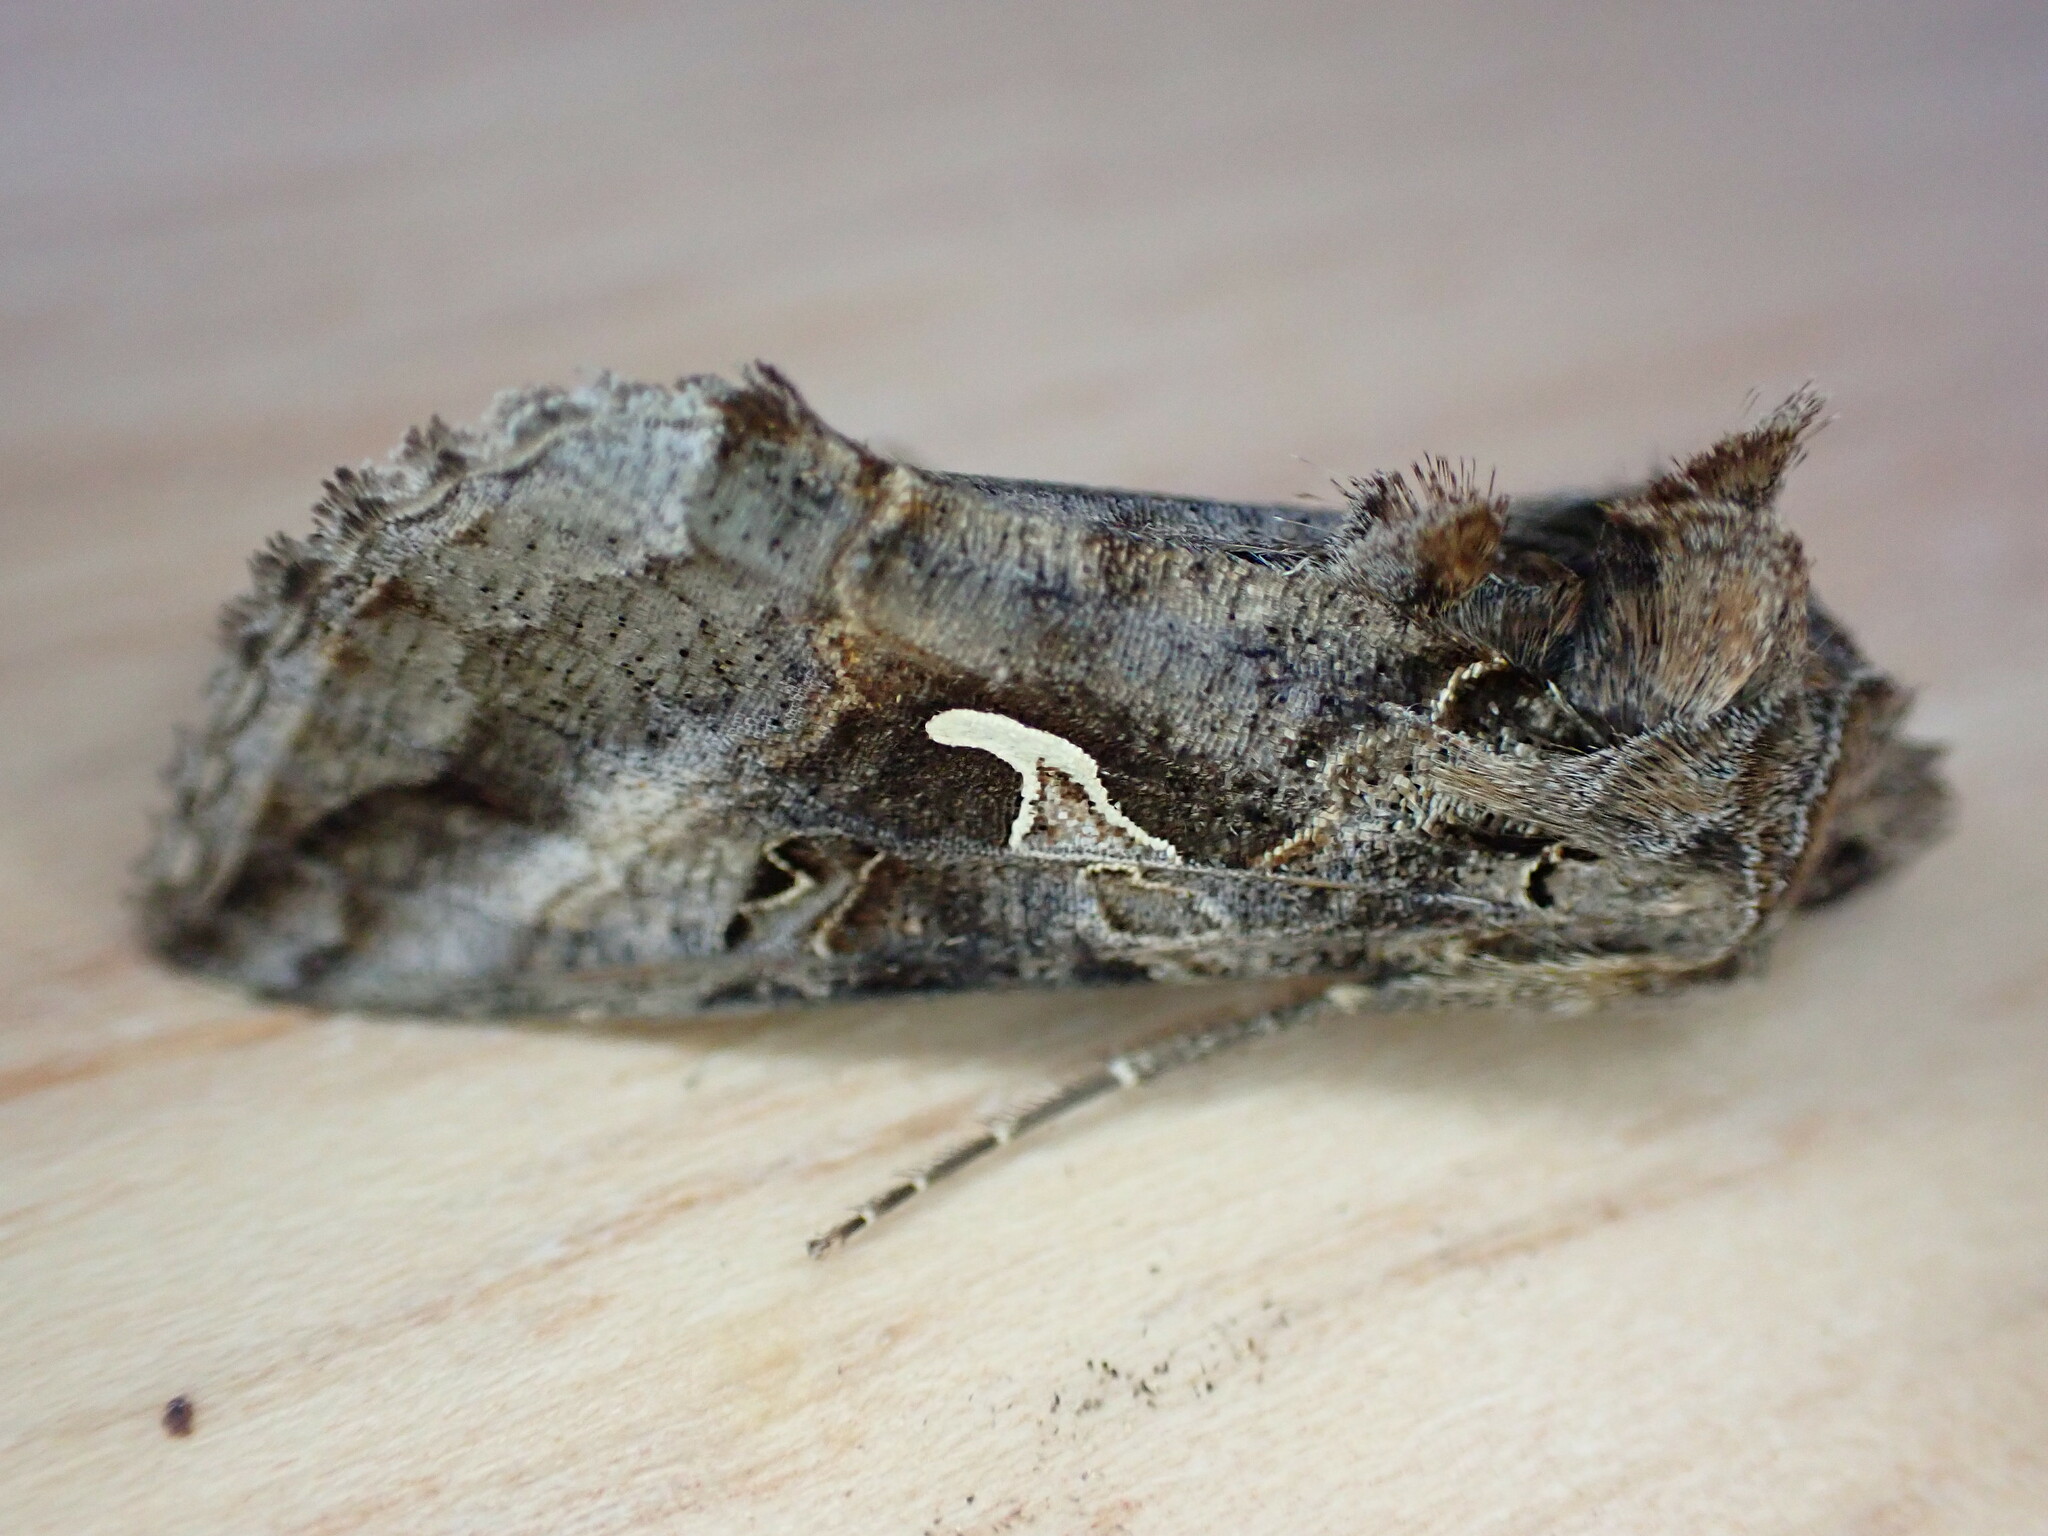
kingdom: Animalia
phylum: Arthropoda
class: Insecta
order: Lepidoptera
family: Noctuidae
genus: Autographa
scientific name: Autographa gamma
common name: Silver y
